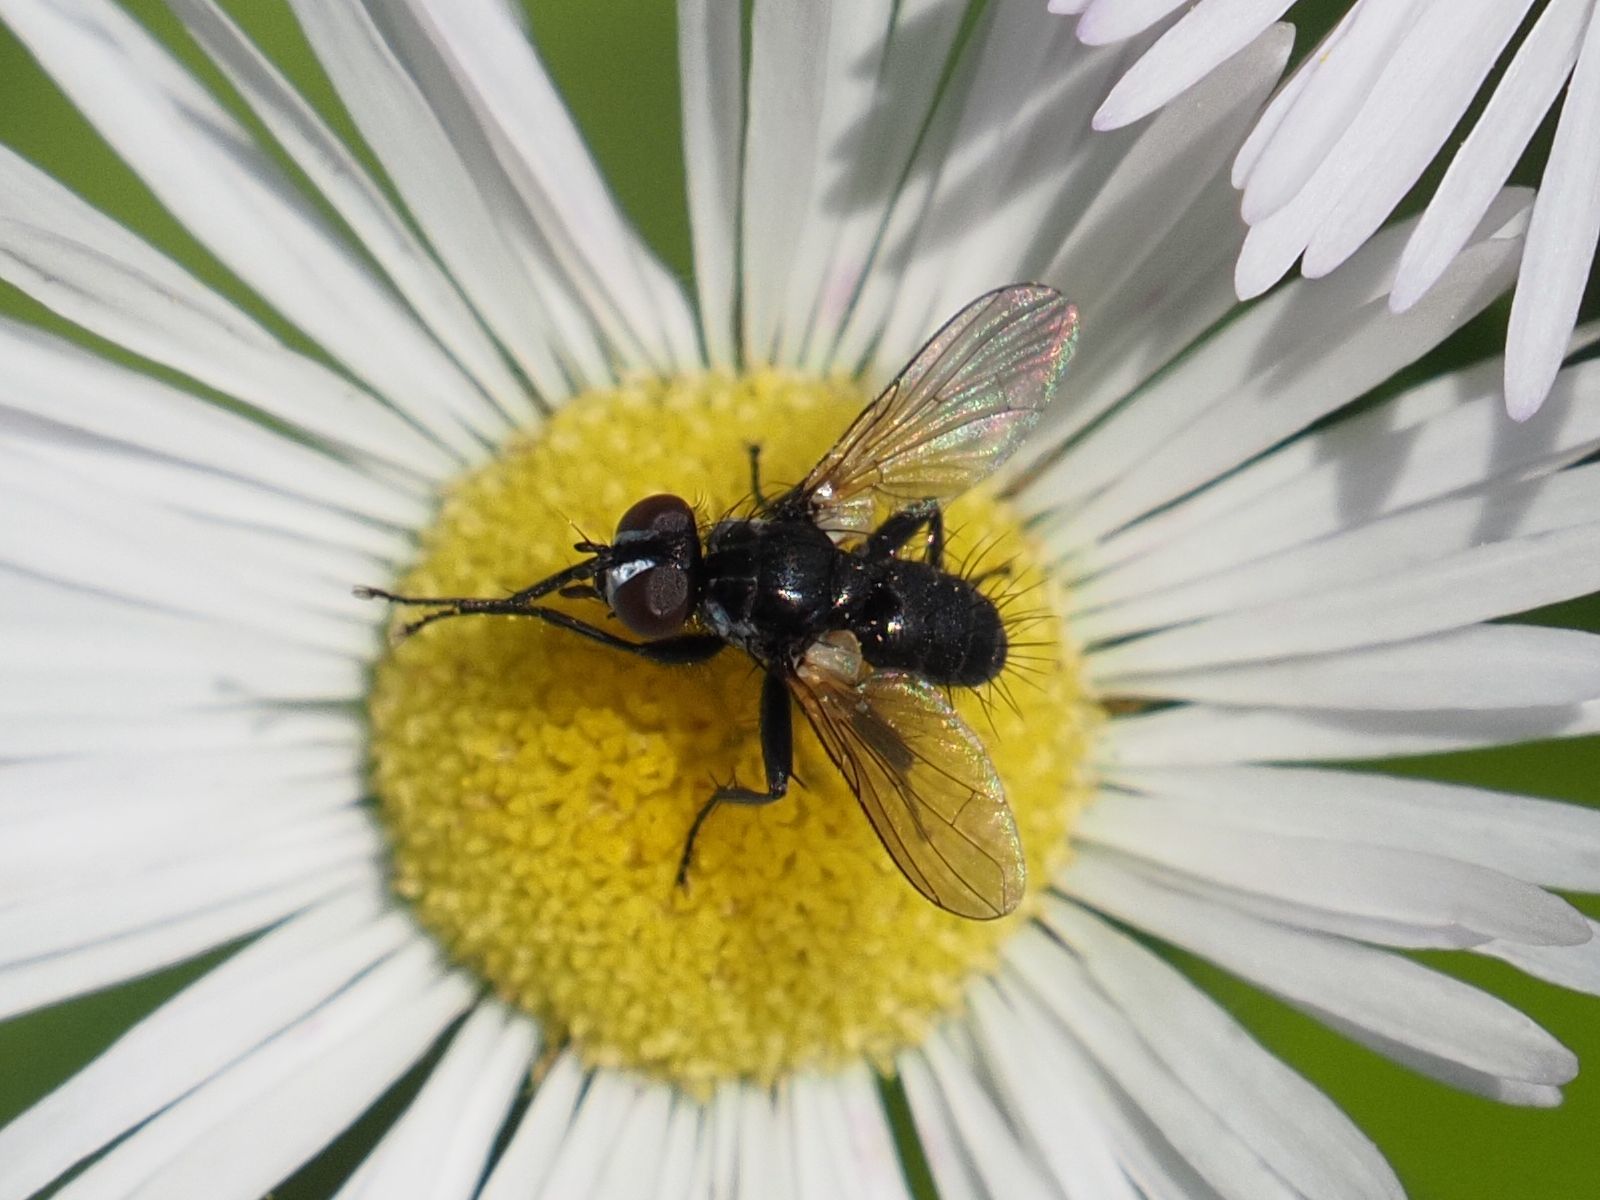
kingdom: Animalia
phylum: Arthropoda
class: Insecta
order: Diptera
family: Tachinidae
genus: Phania
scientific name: Phania funesta
